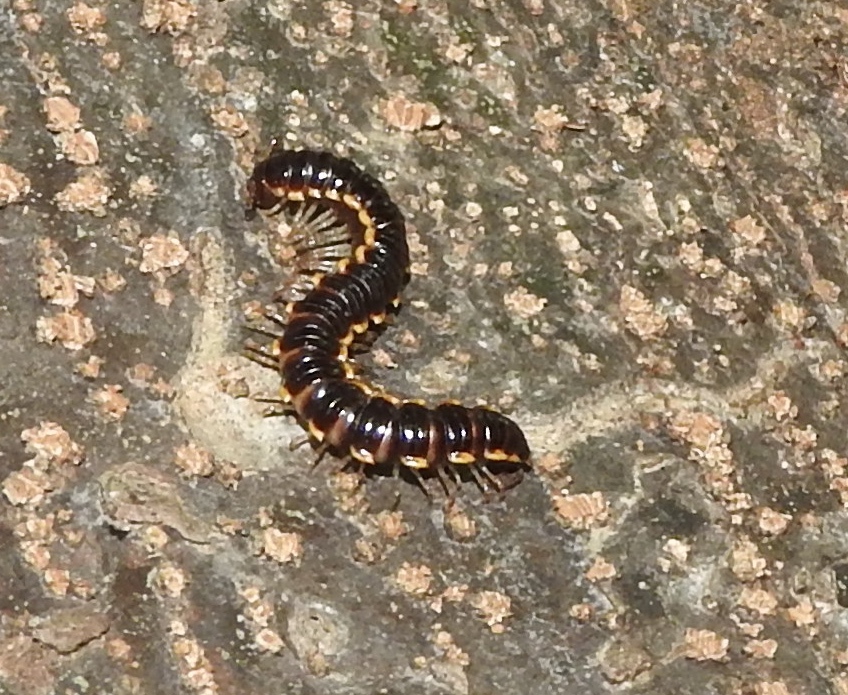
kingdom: Animalia
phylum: Arthropoda
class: Diplopoda
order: Polydesmida
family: Paradoxosomatidae
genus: Oxidus
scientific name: Oxidus gracilis
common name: Greenhouse millipede
